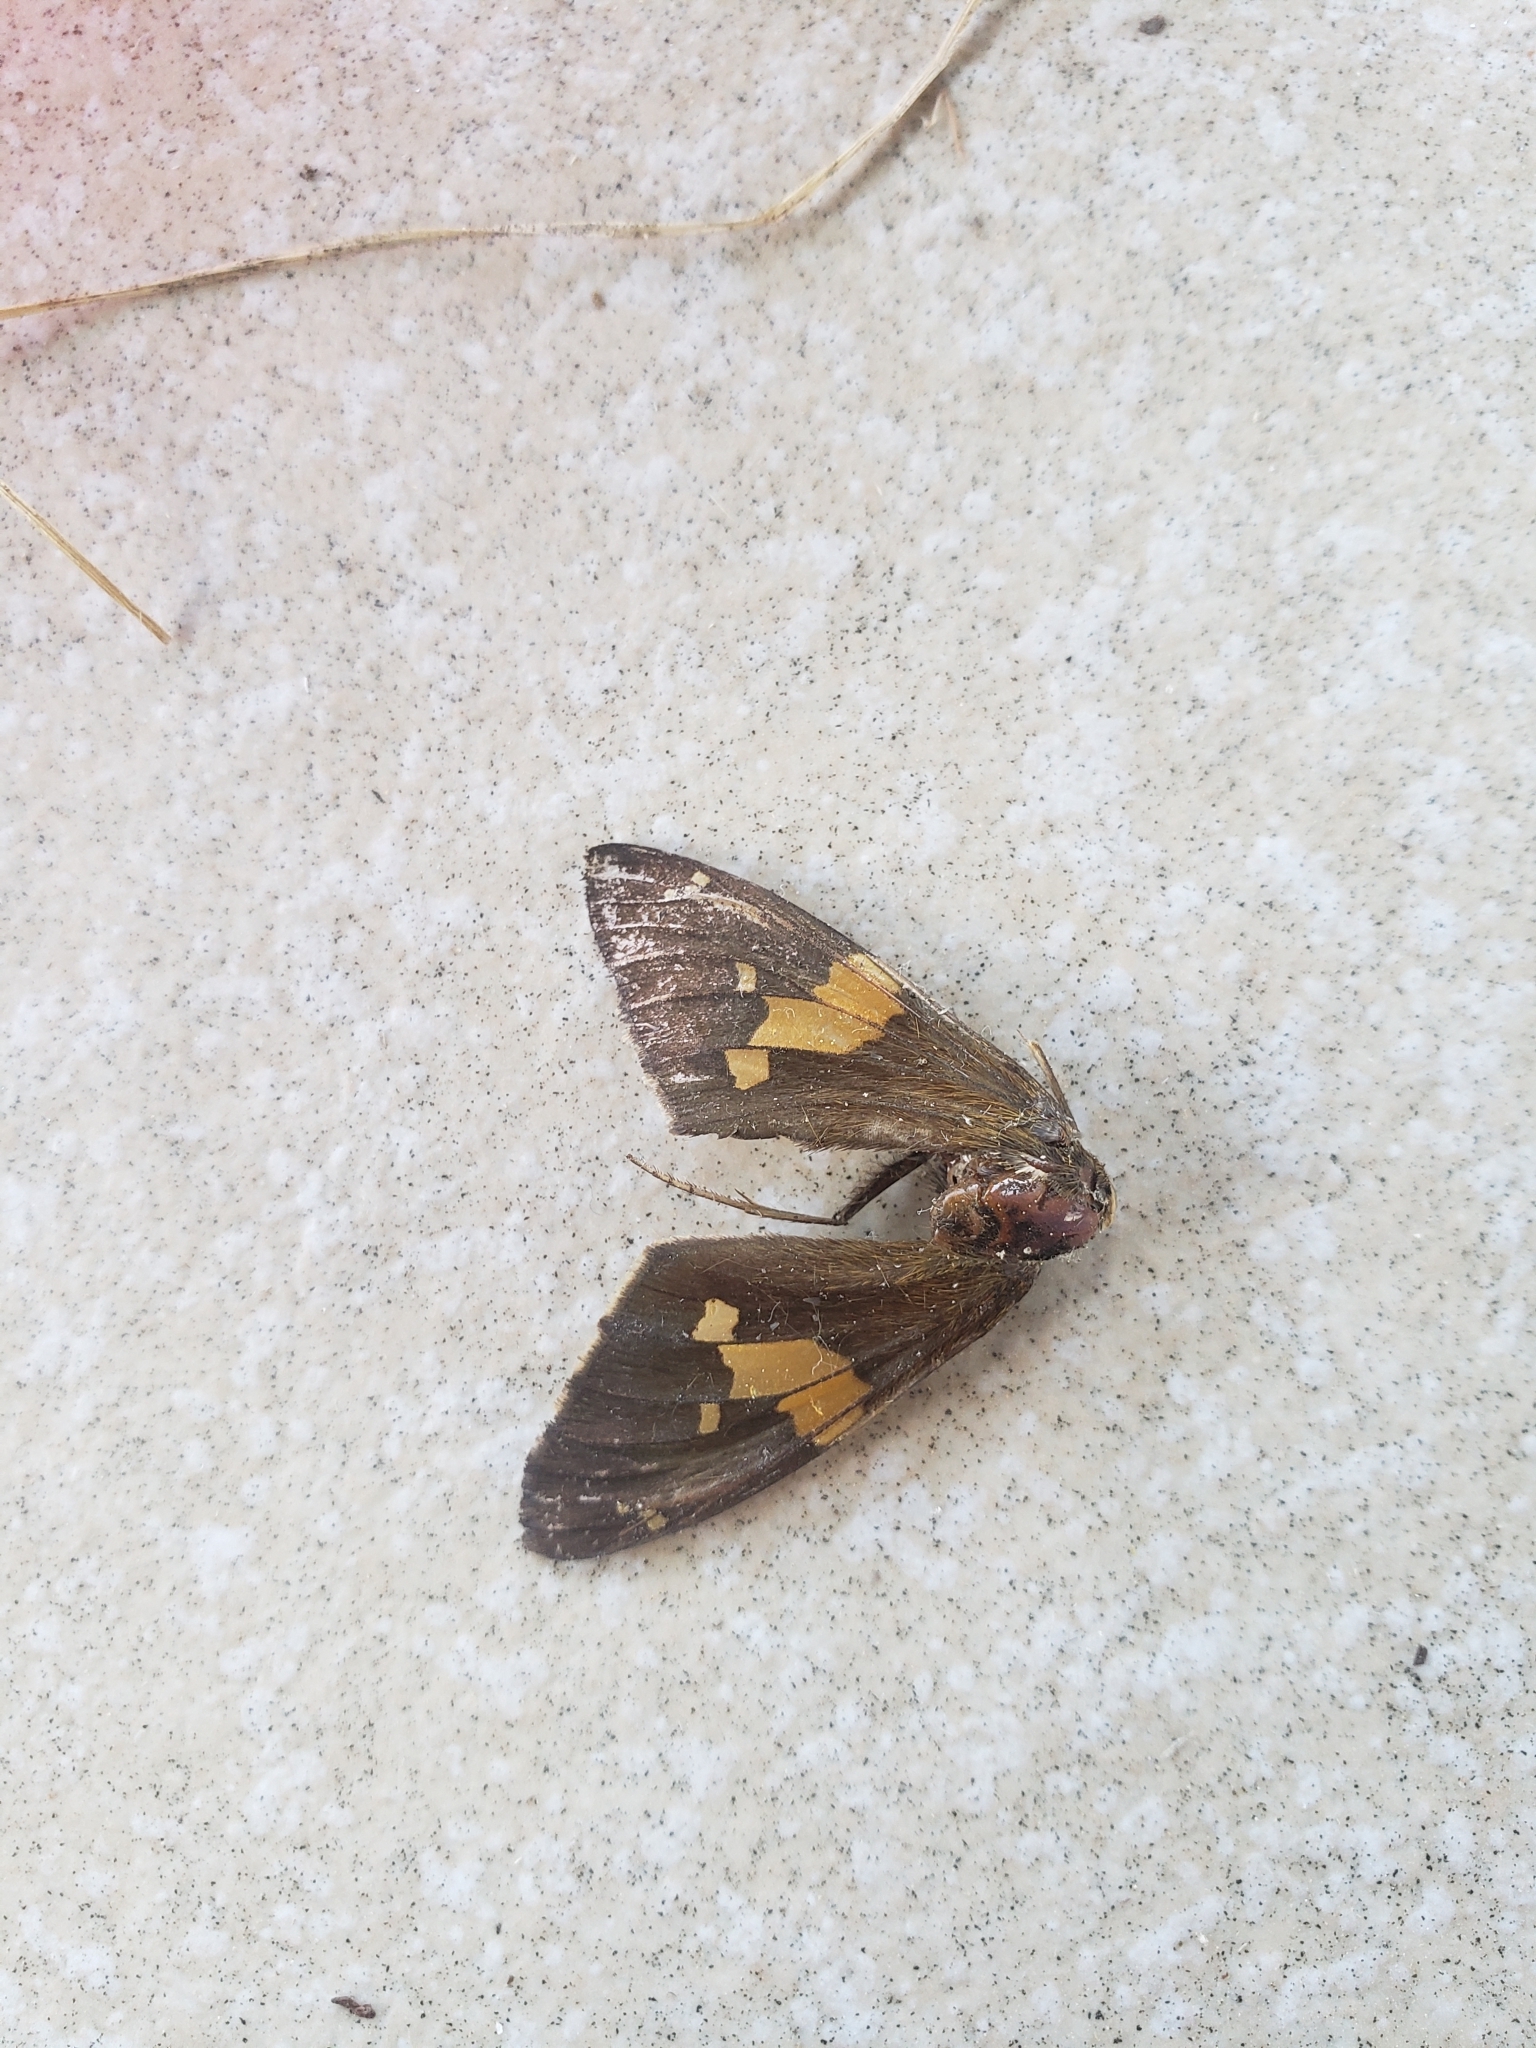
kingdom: Animalia
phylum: Arthropoda
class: Insecta
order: Lepidoptera
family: Hesperiidae
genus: Epargyreus
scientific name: Epargyreus clarus
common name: Silver-spotted skipper
